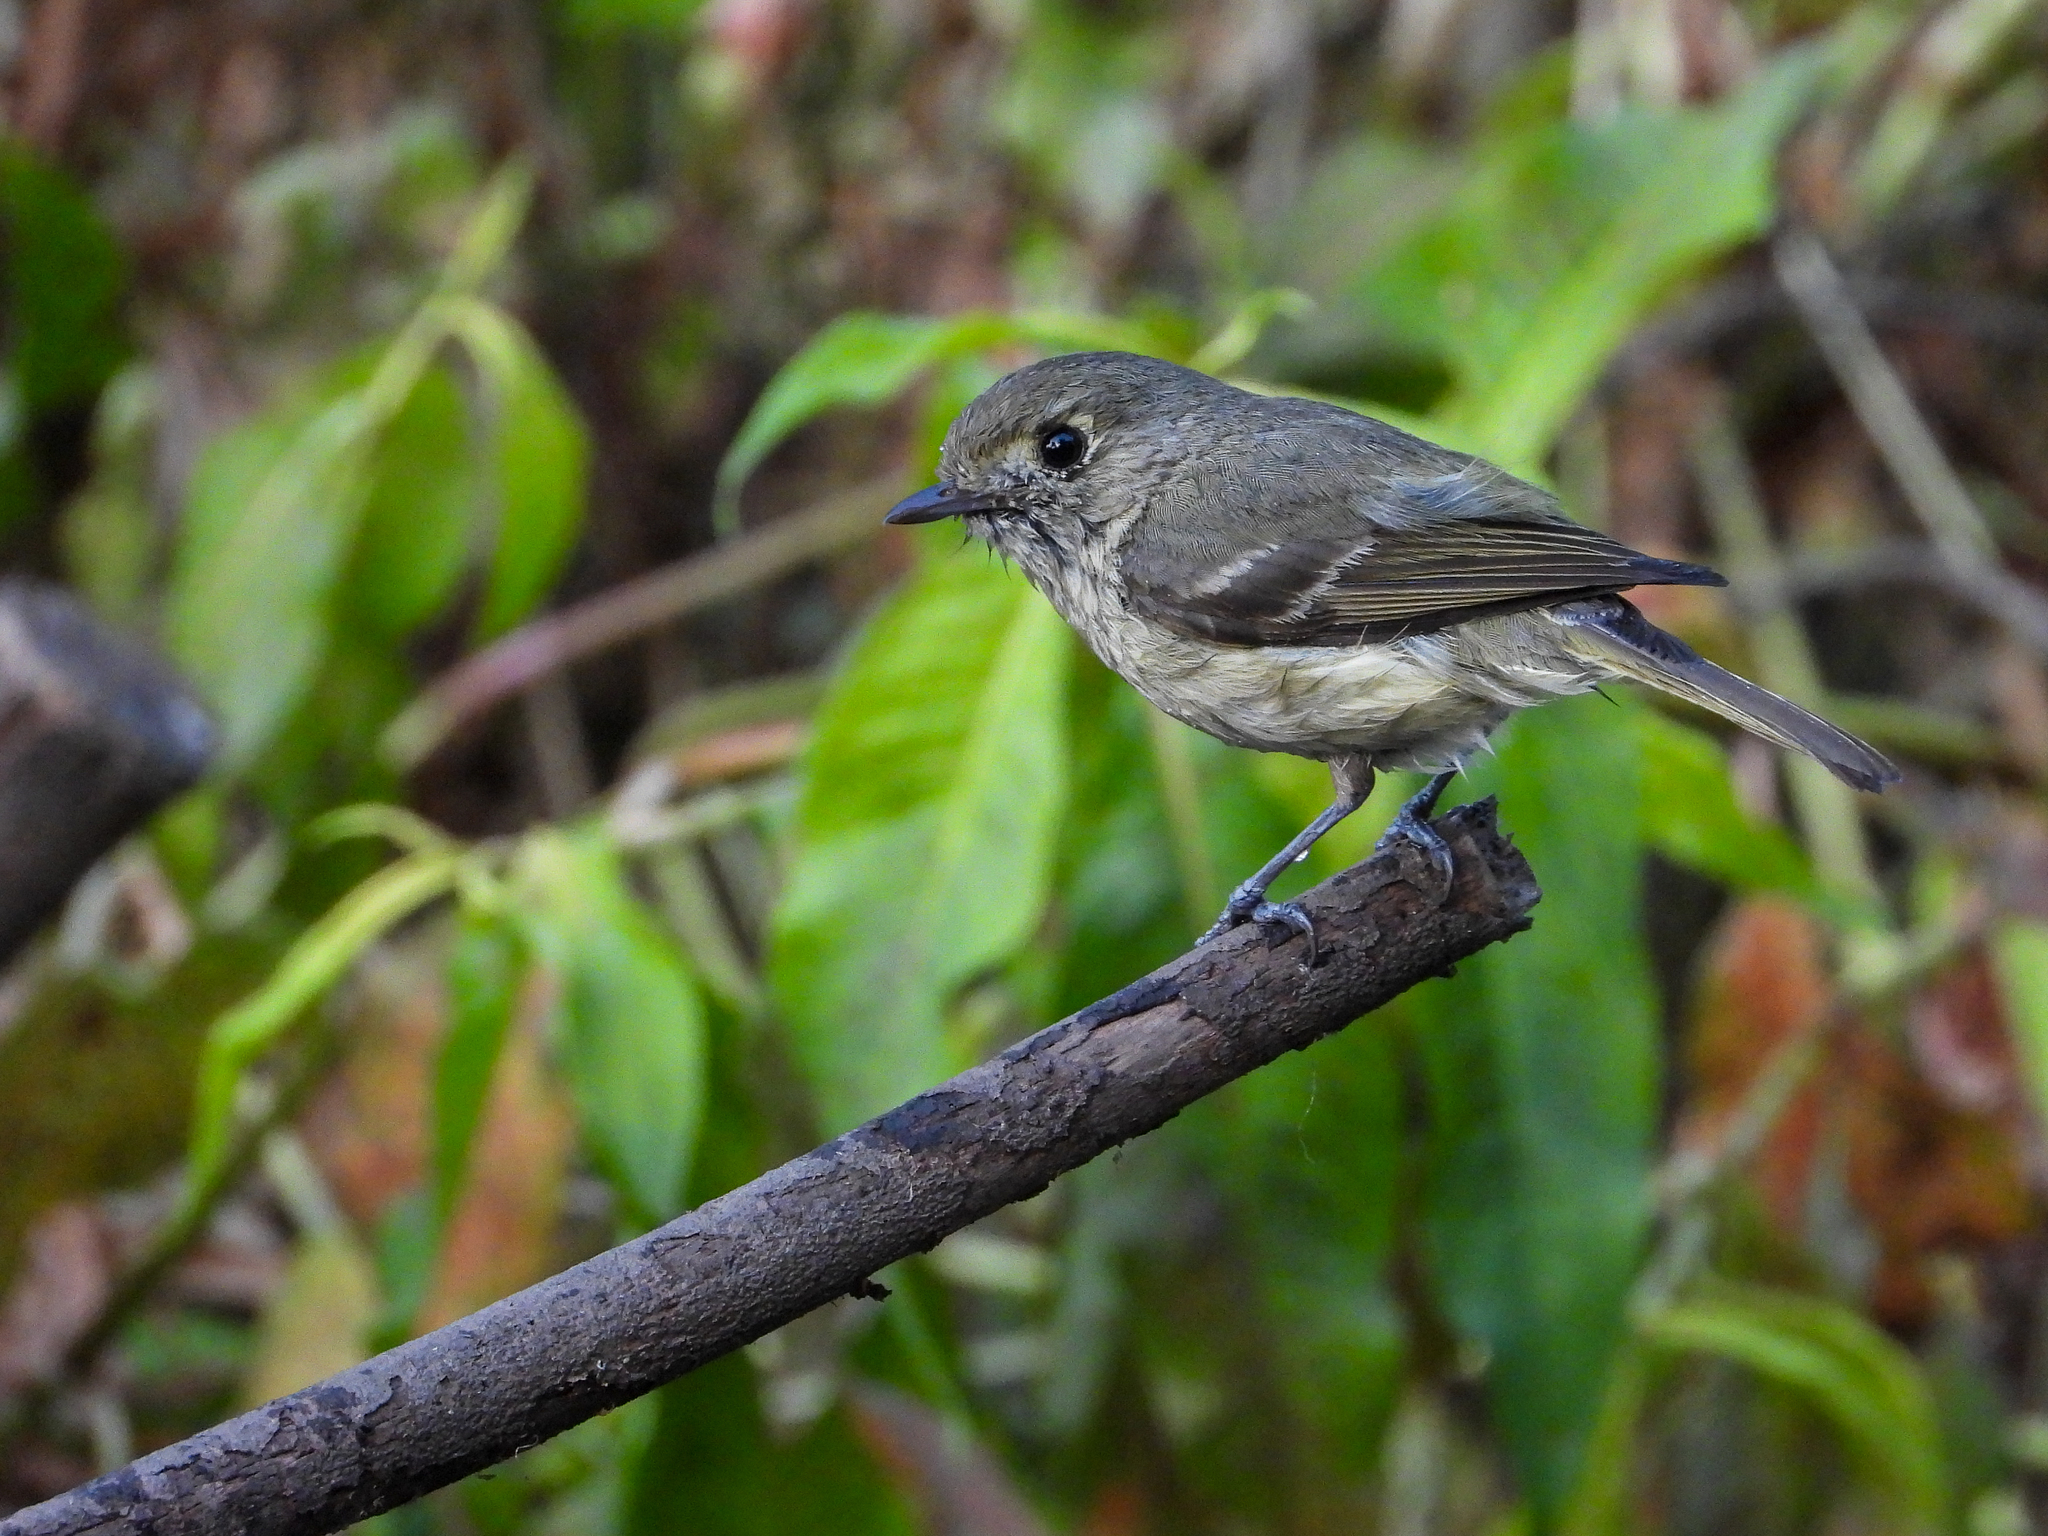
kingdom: Animalia
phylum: Chordata
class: Aves
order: Passeriformes
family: Vireonidae
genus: Vireo
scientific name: Vireo huttoni
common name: Hutton's vireo
